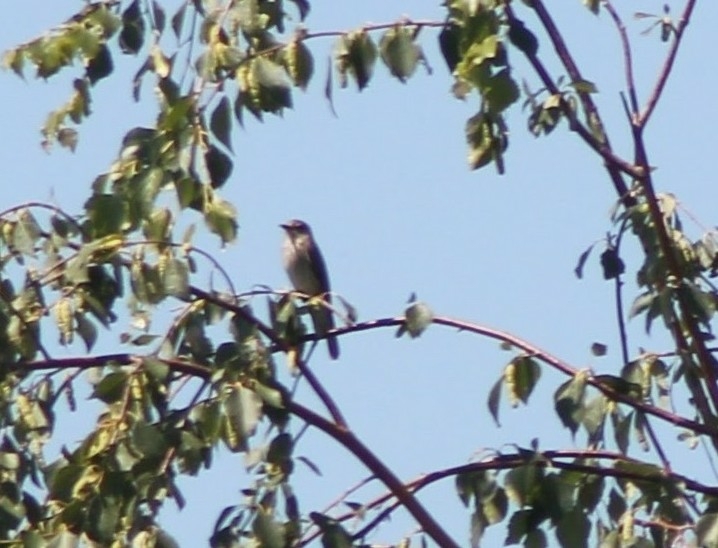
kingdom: Animalia
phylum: Chordata
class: Aves
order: Passeriformes
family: Muscicapidae
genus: Muscicapa
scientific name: Muscicapa striata
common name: Spotted flycatcher
